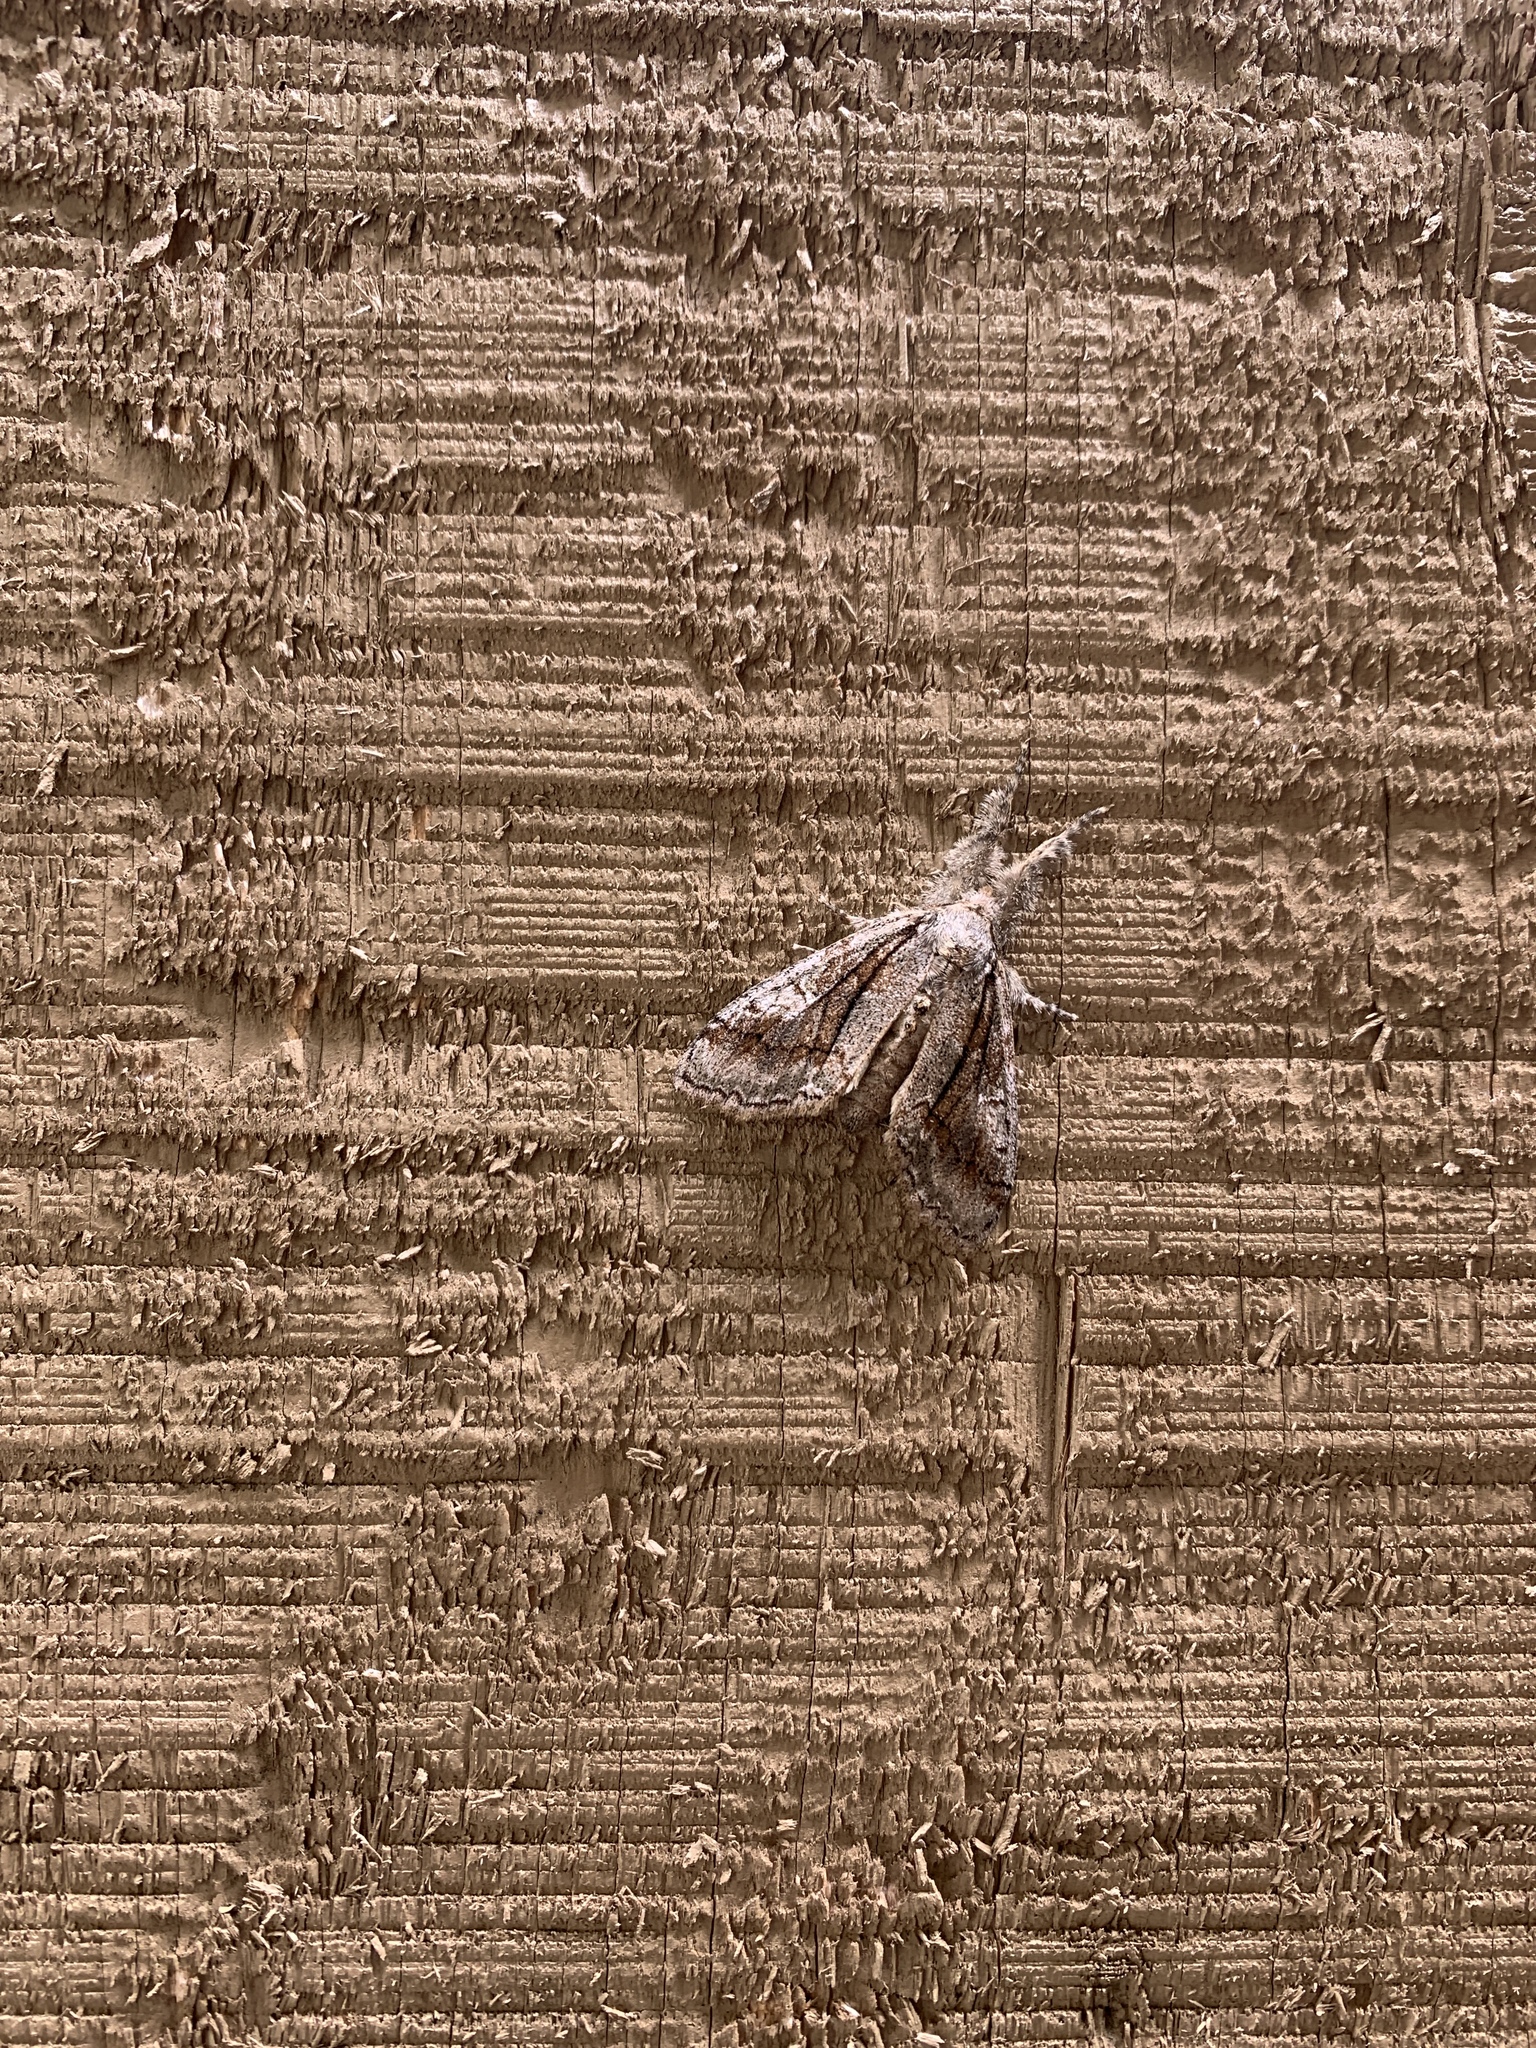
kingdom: Animalia
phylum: Arthropoda
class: Insecta
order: Lepidoptera
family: Erebidae
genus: Dasychira
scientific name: Dasychira obliquata
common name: Streaked tussock moth
